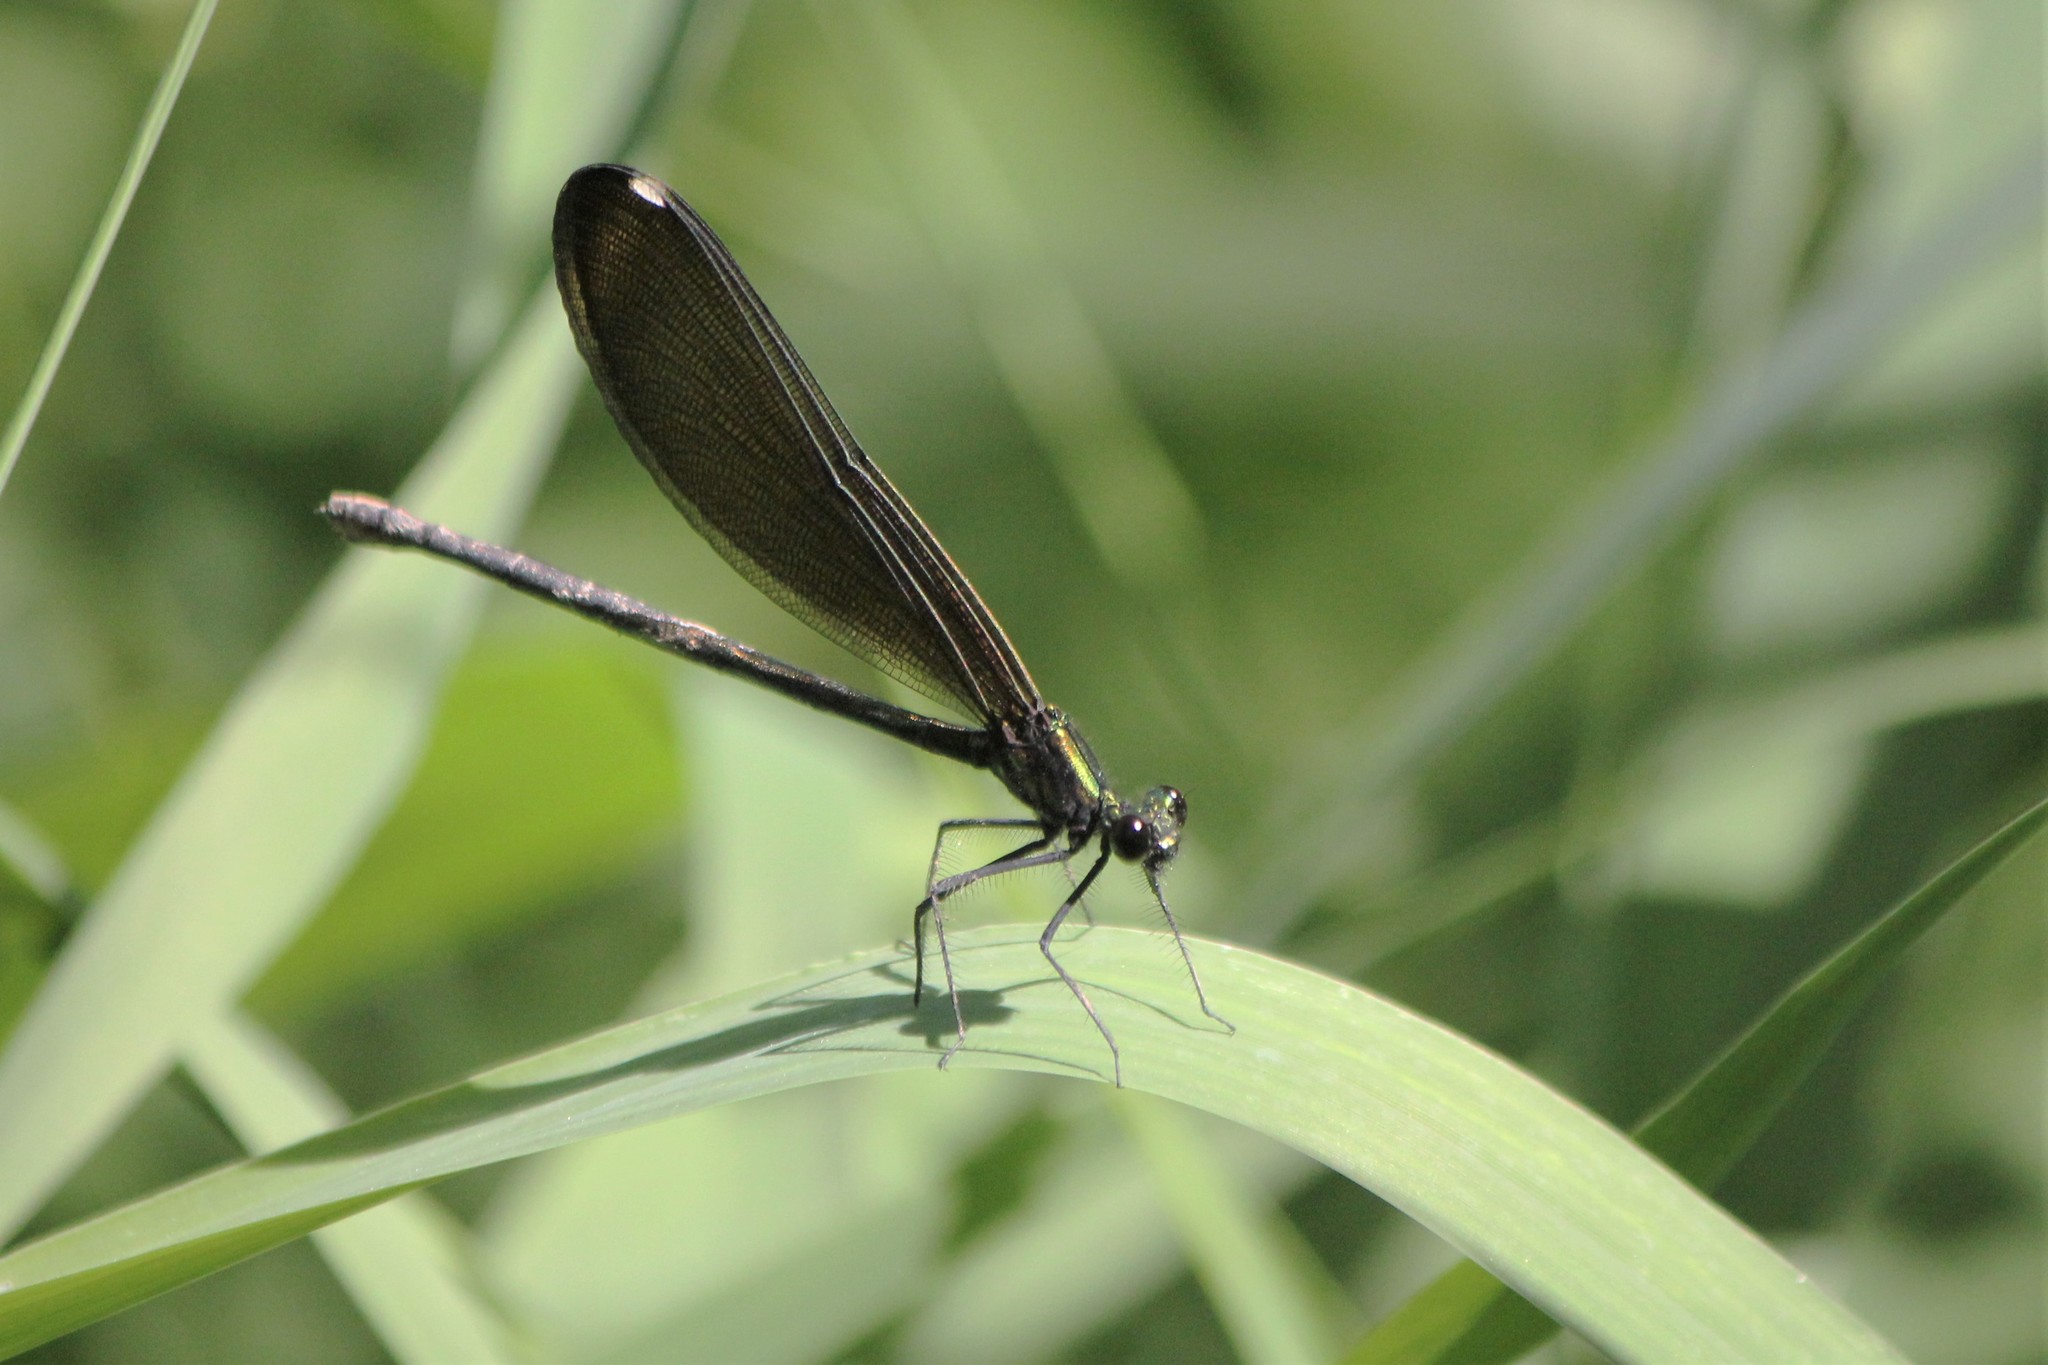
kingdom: Animalia
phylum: Arthropoda
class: Insecta
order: Odonata
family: Calopterygidae
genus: Calopteryx
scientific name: Calopteryx maculata
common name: Ebony jewelwing
